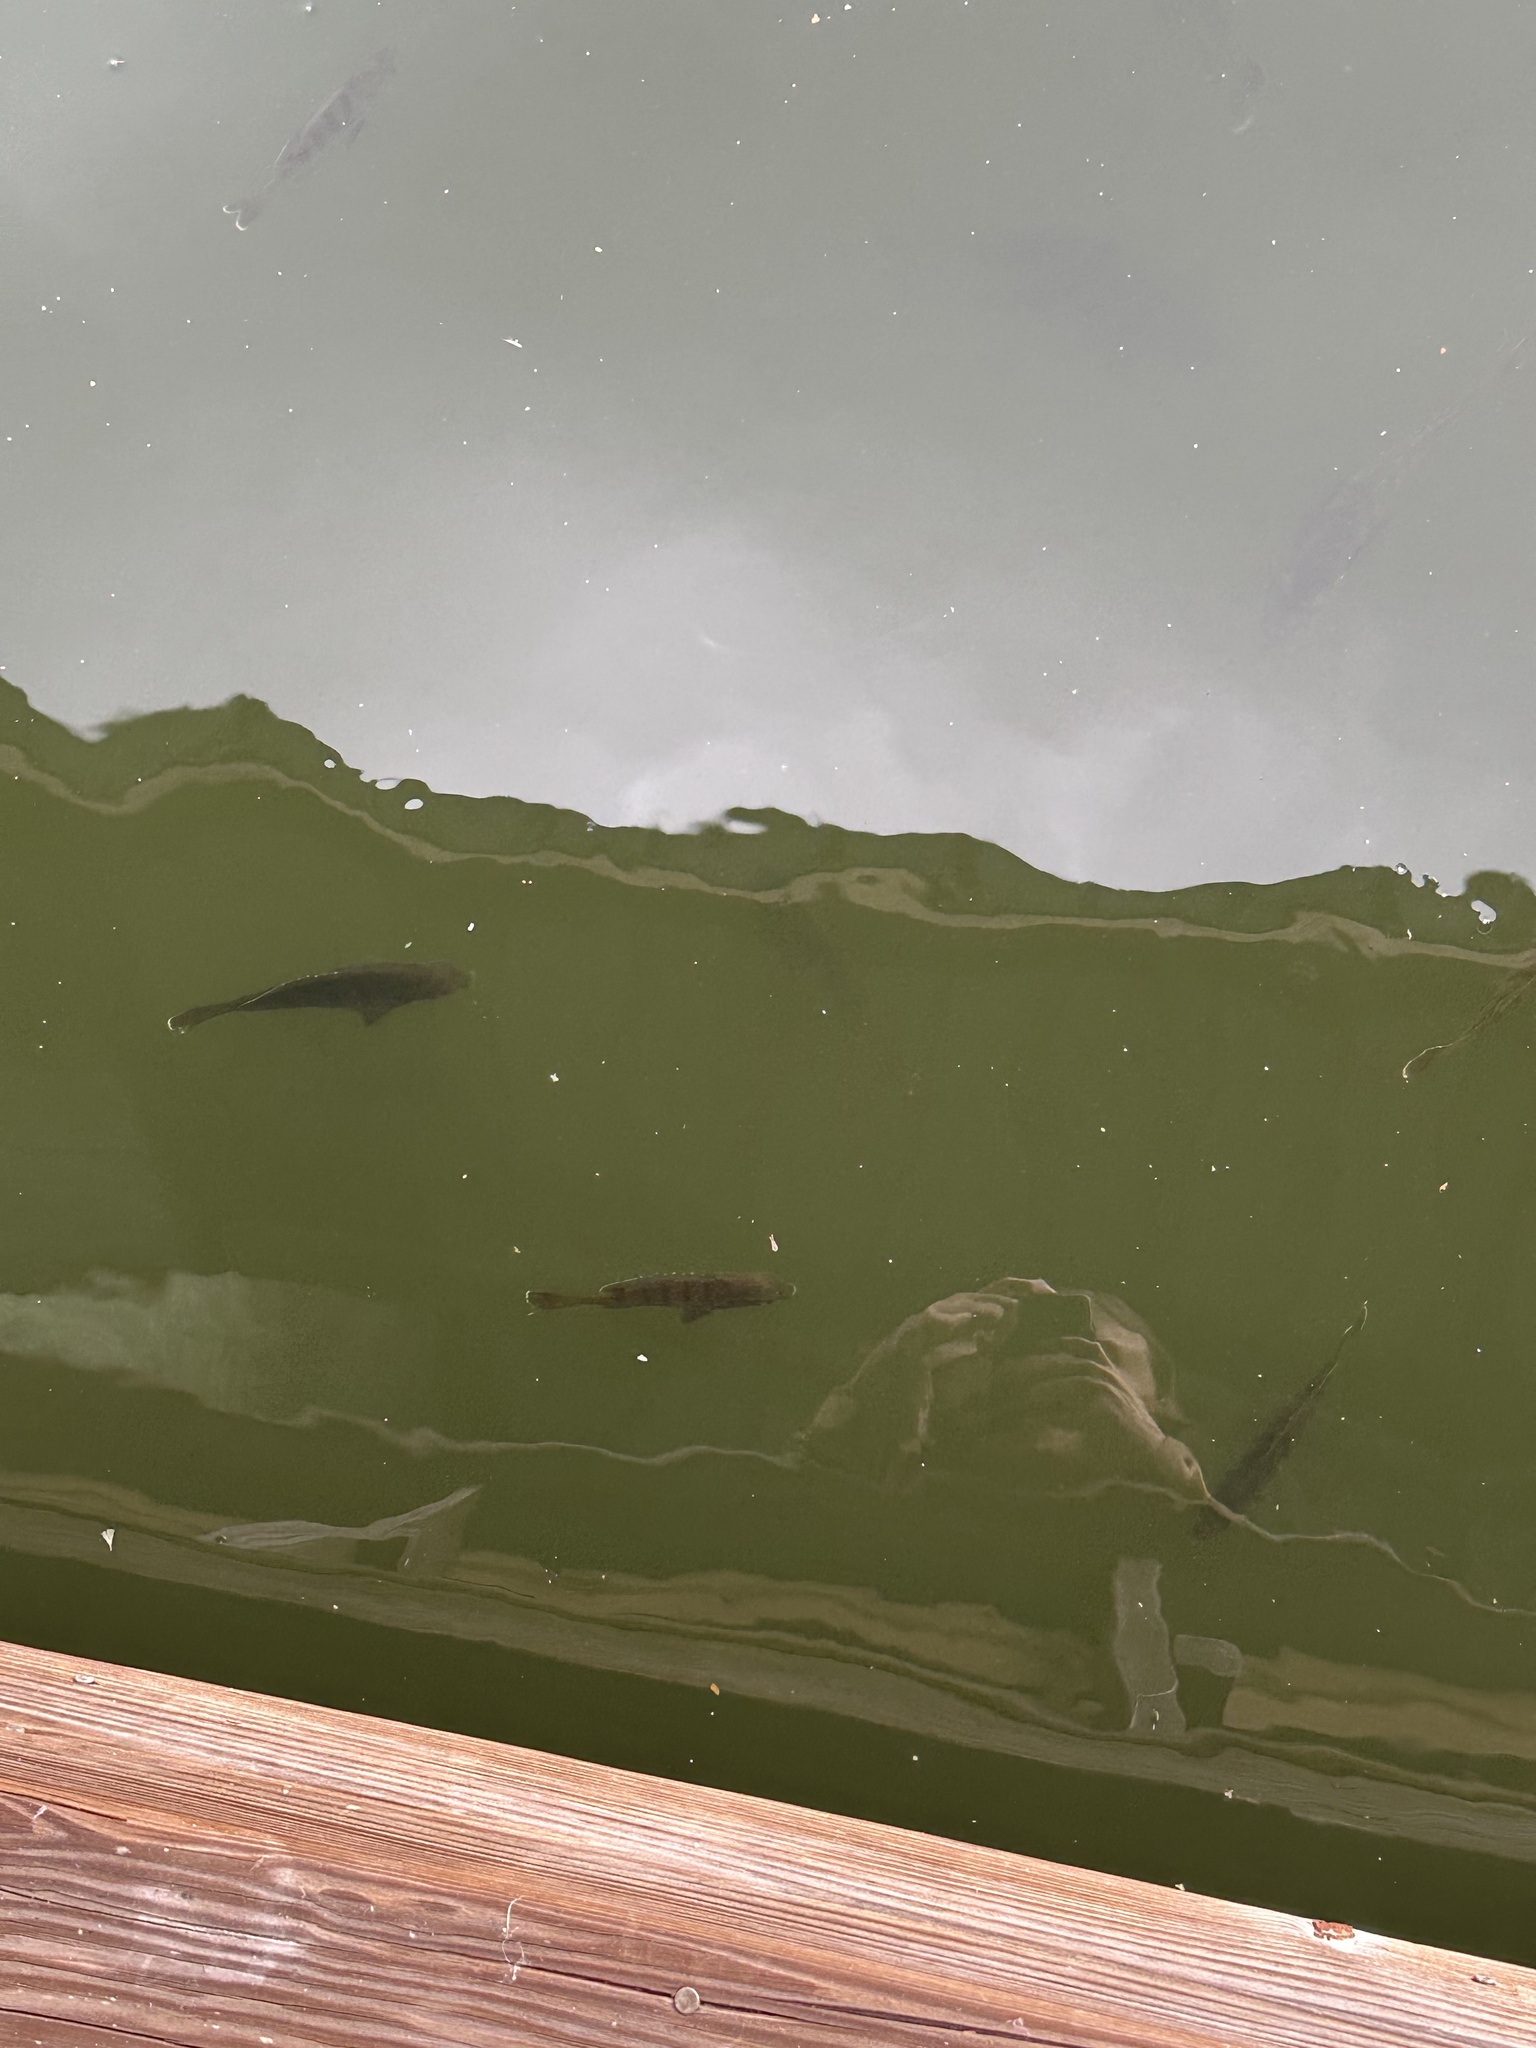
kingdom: Animalia
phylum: Chordata
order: Perciformes
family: Centrarchidae
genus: Lepomis
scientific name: Lepomis macrochirus
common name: Bluegill
